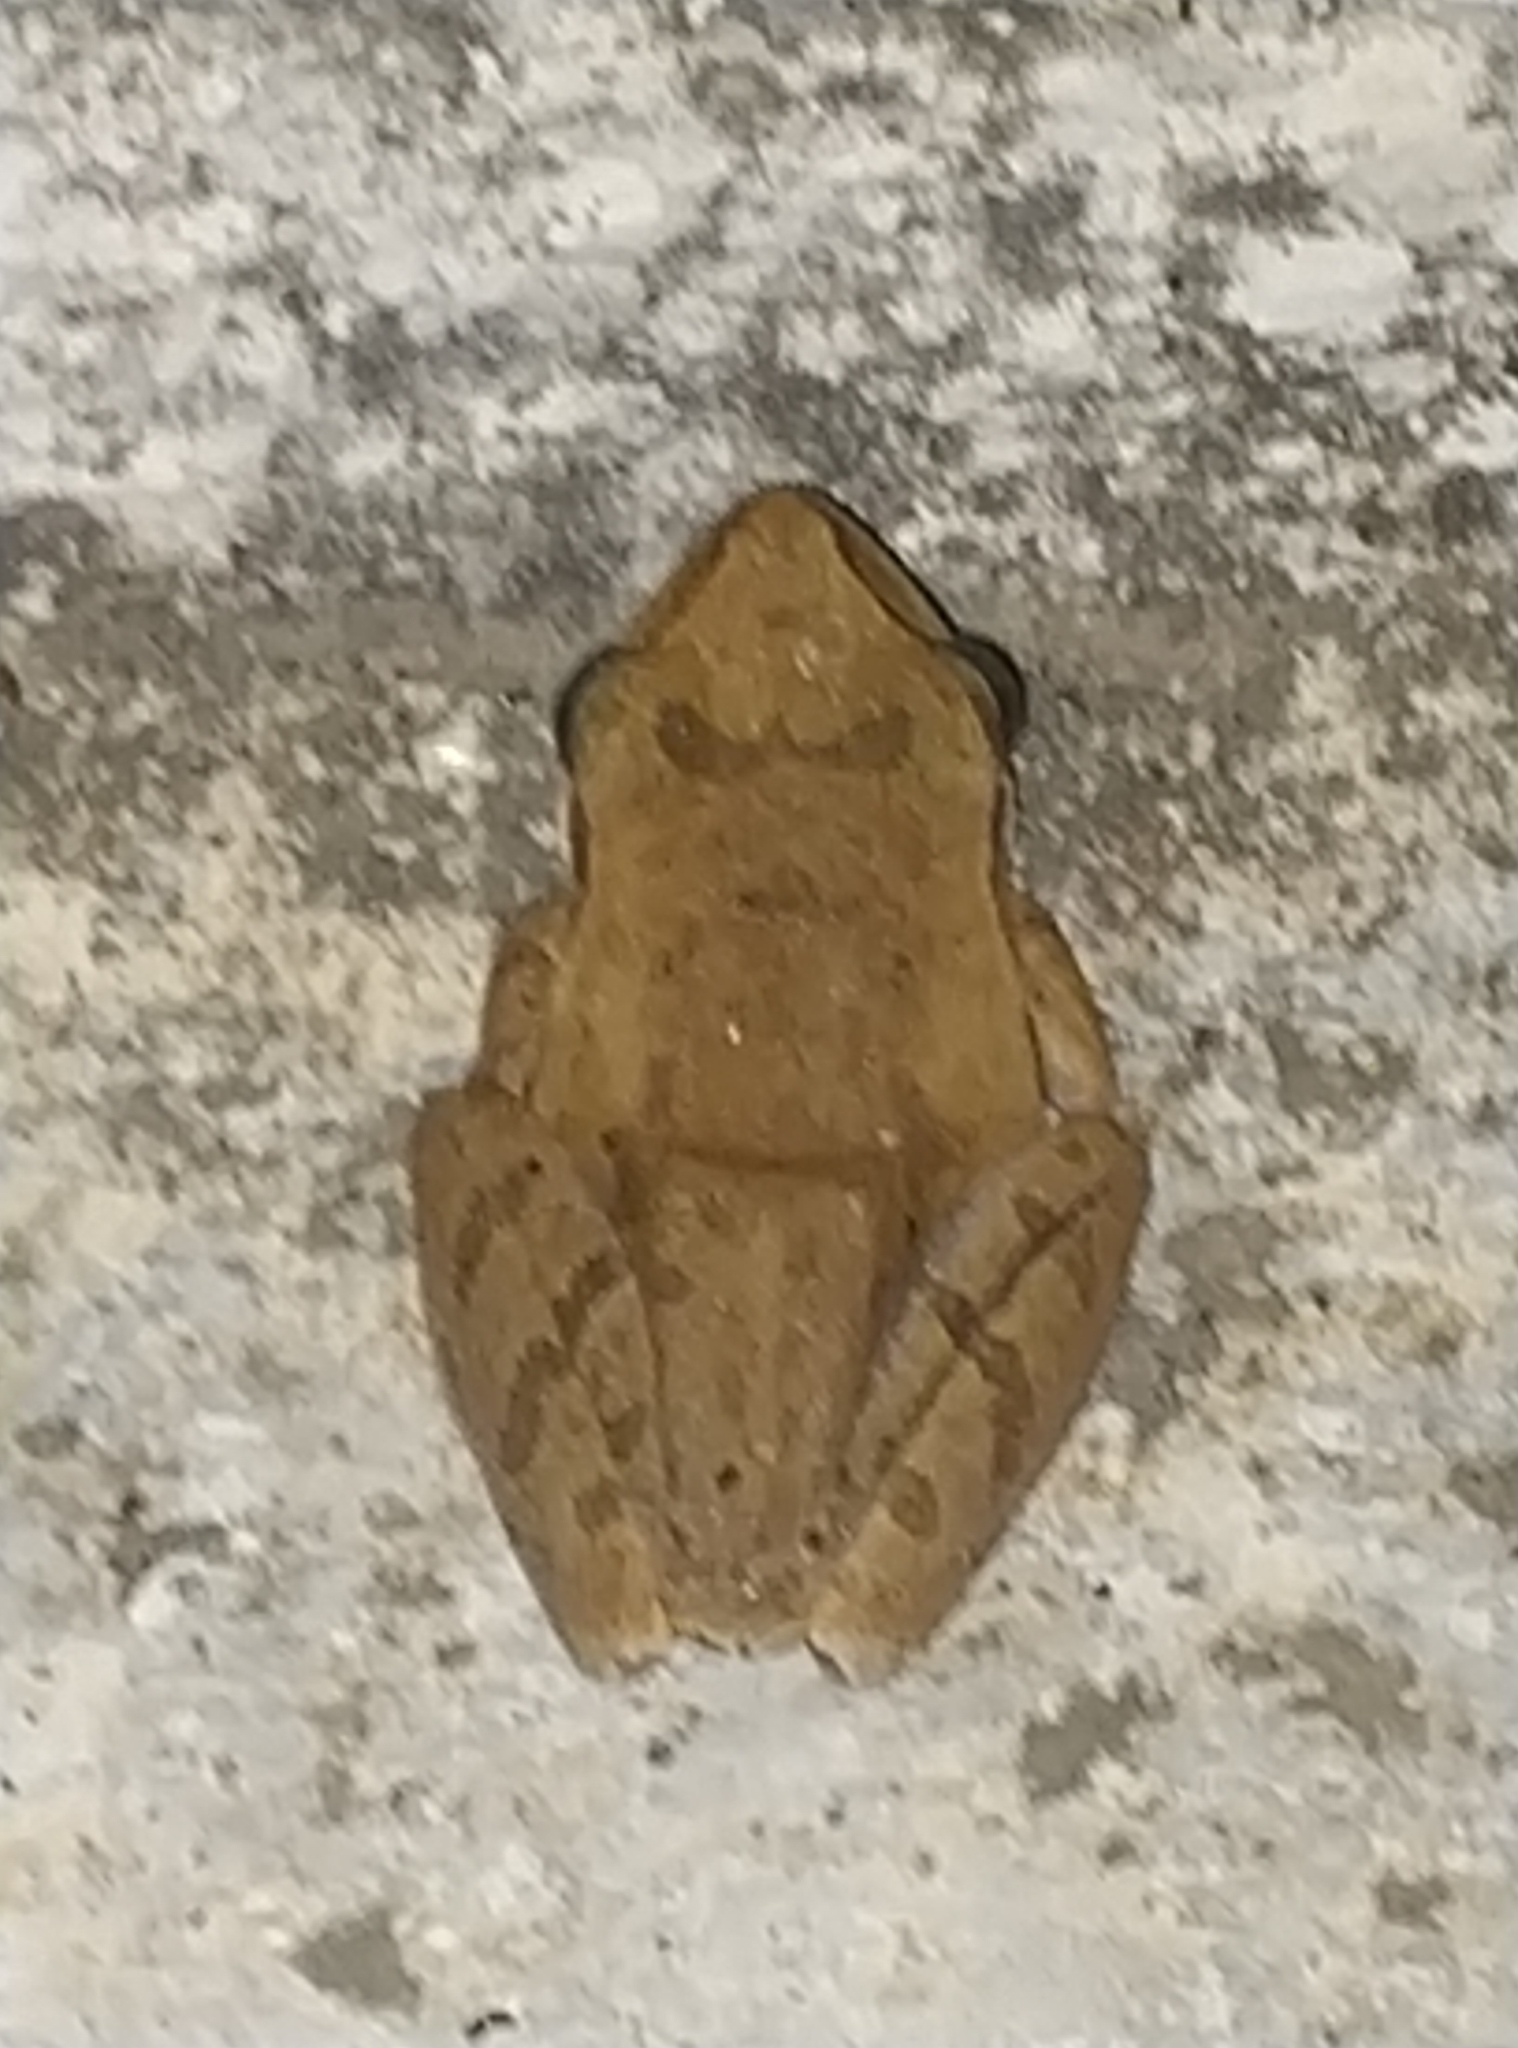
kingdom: Animalia
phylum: Chordata
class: Amphibia
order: Anura
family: Rhacophoridae
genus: Polypedates
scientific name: Polypedates maculatus
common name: Himalayan tree frog
